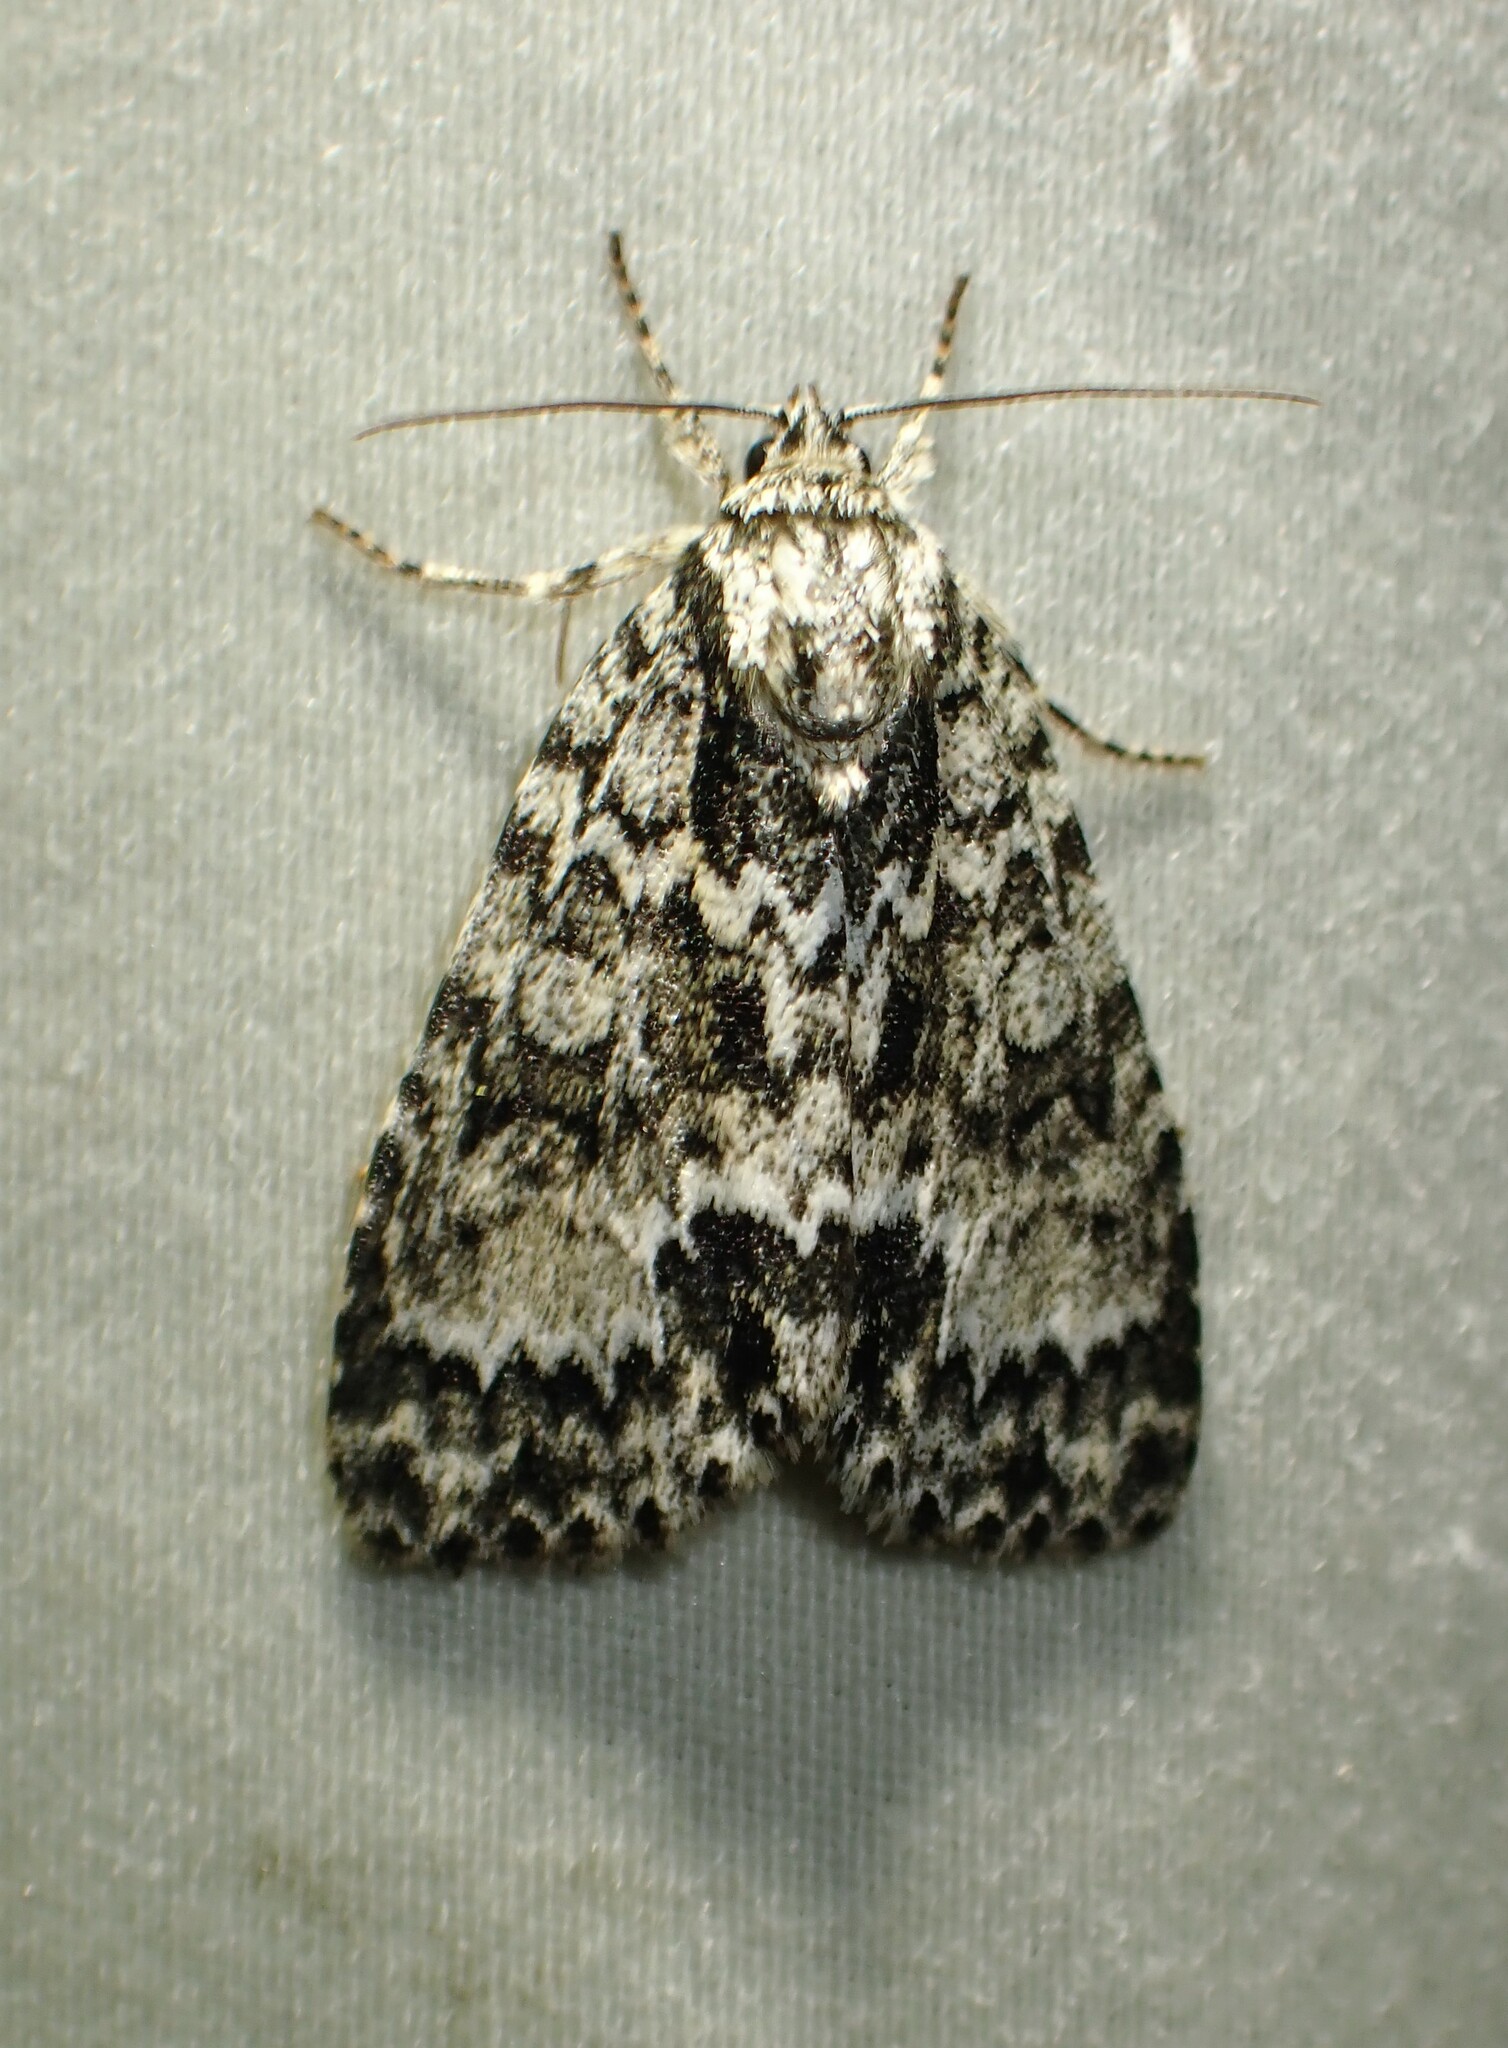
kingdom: Animalia
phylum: Arthropoda
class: Insecta
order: Lepidoptera
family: Noctuidae
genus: Acronicta
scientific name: Acronicta fragilis
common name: Fragile dagger
